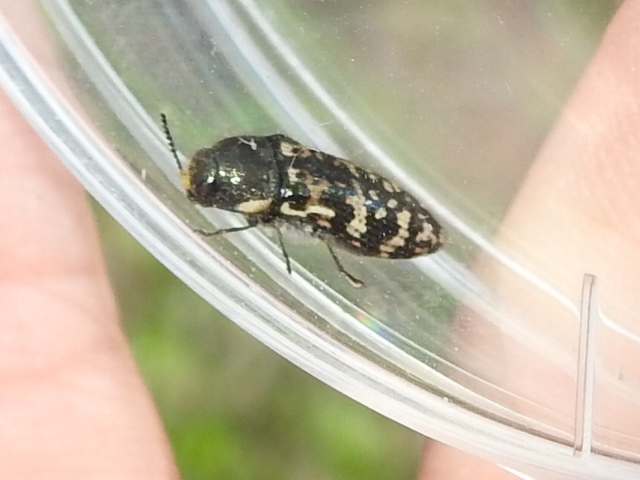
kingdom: Animalia
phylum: Arthropoda
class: Insecta
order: Coleoptera
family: Buprestidae
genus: Acmaeodera
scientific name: Acmaeodera obtusa
